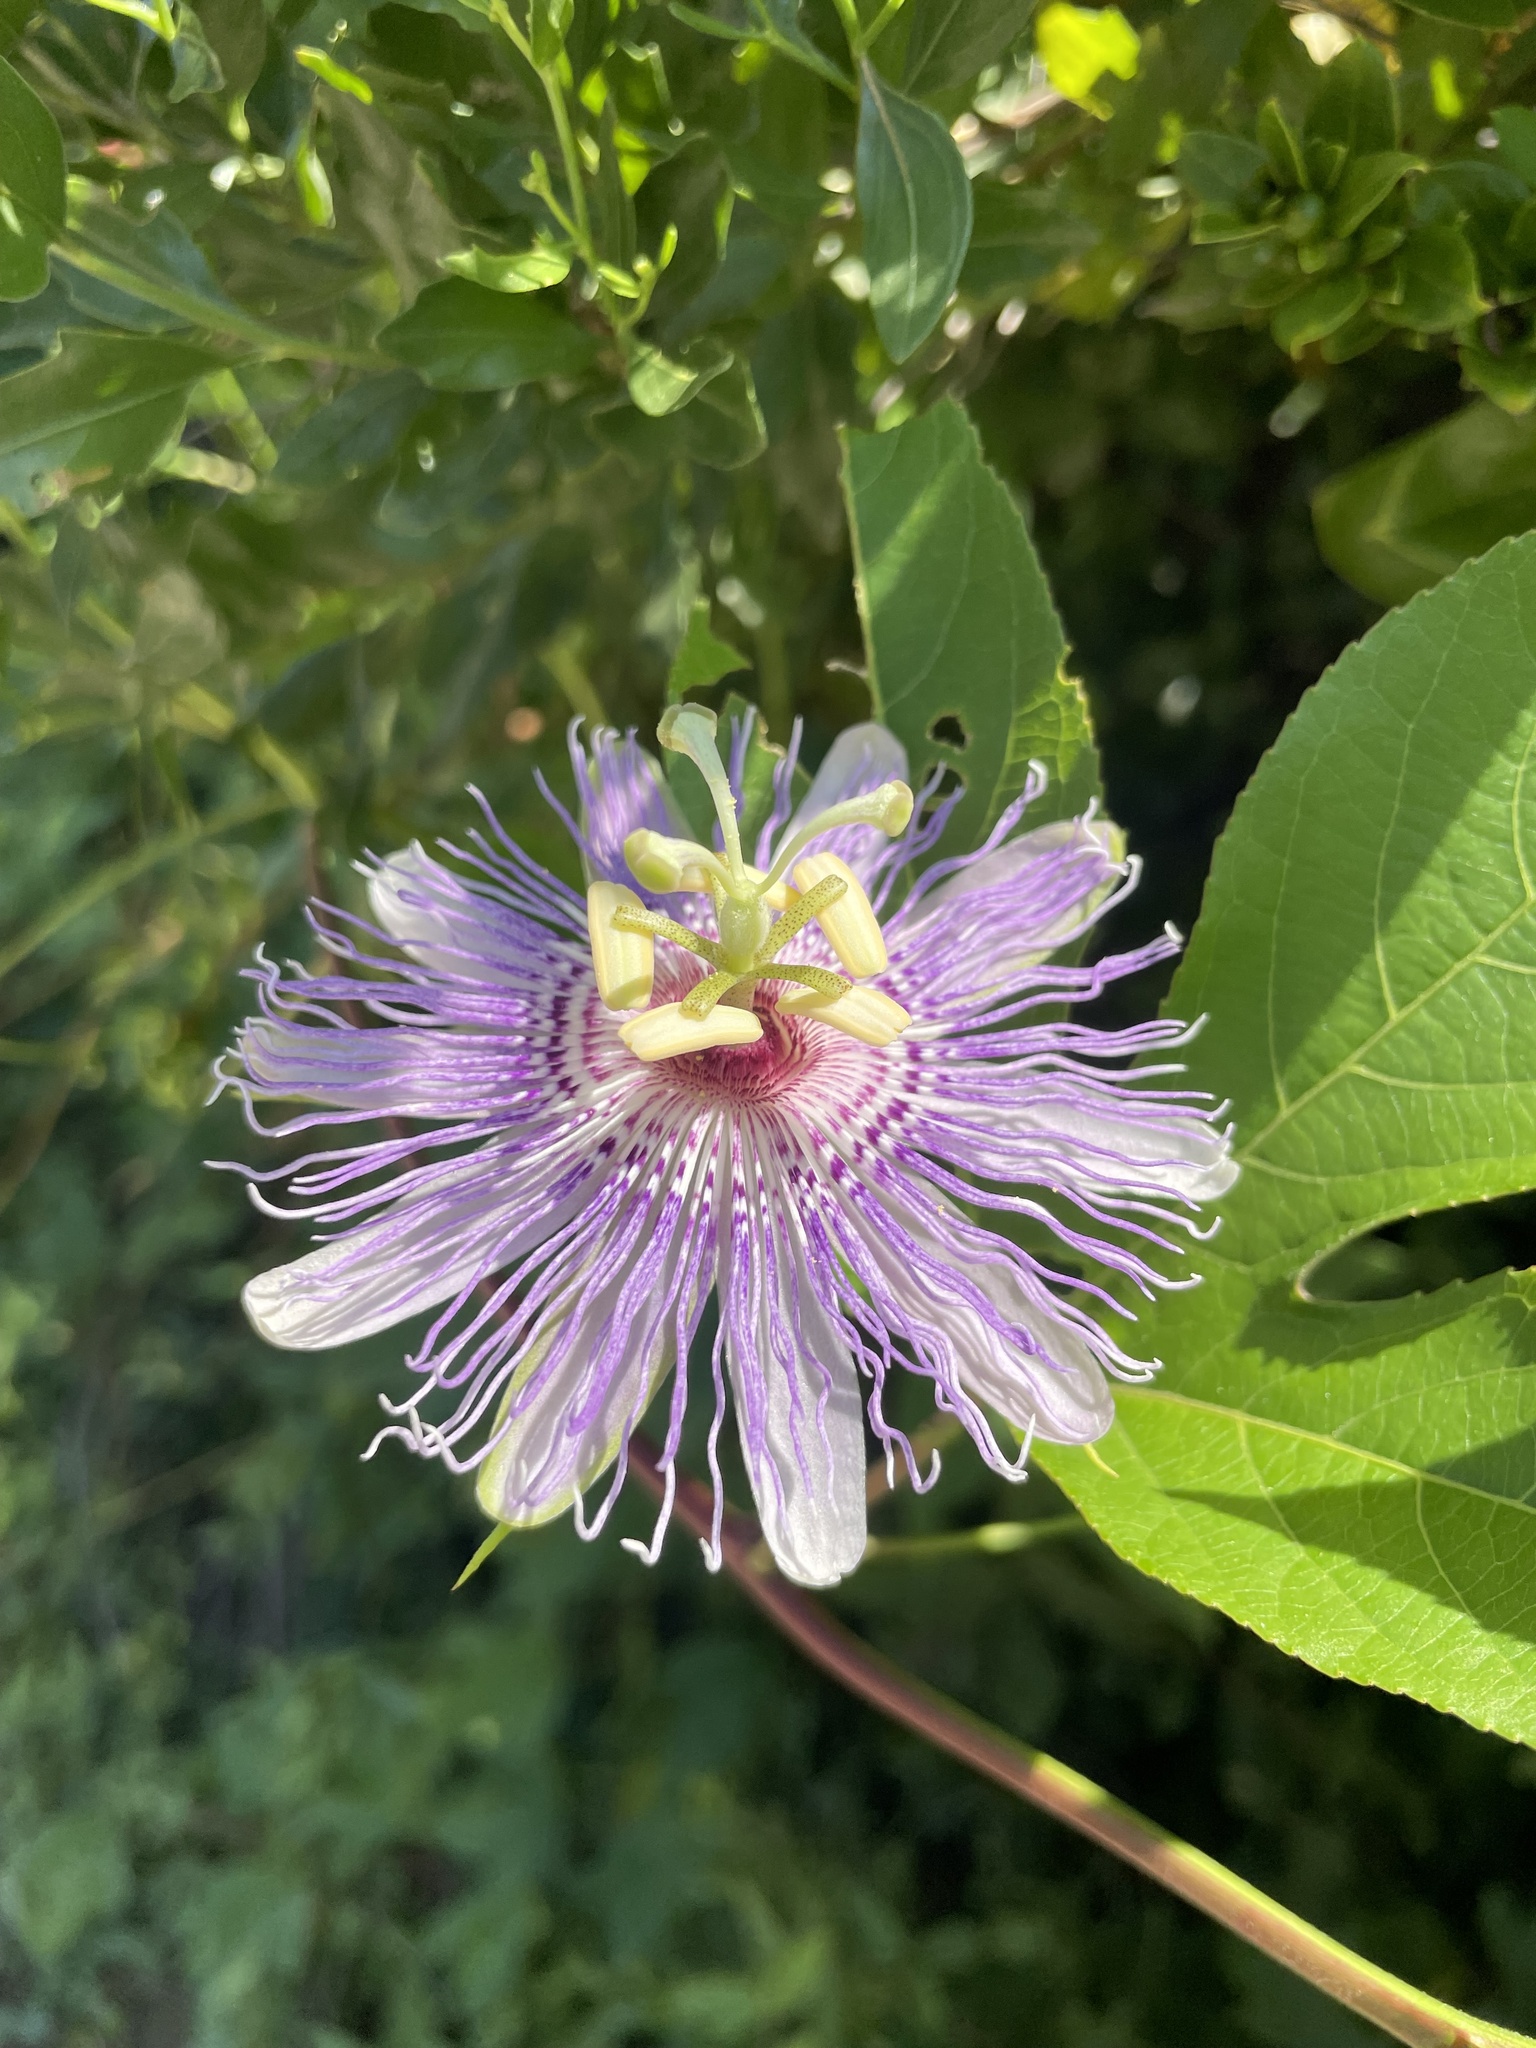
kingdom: Plantae
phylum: Tracheophyta
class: Magnoliopsida
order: Malpighiales
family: Passifloraceae
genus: Passiflora
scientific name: Passiflora incarnata
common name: Apricot-vine
